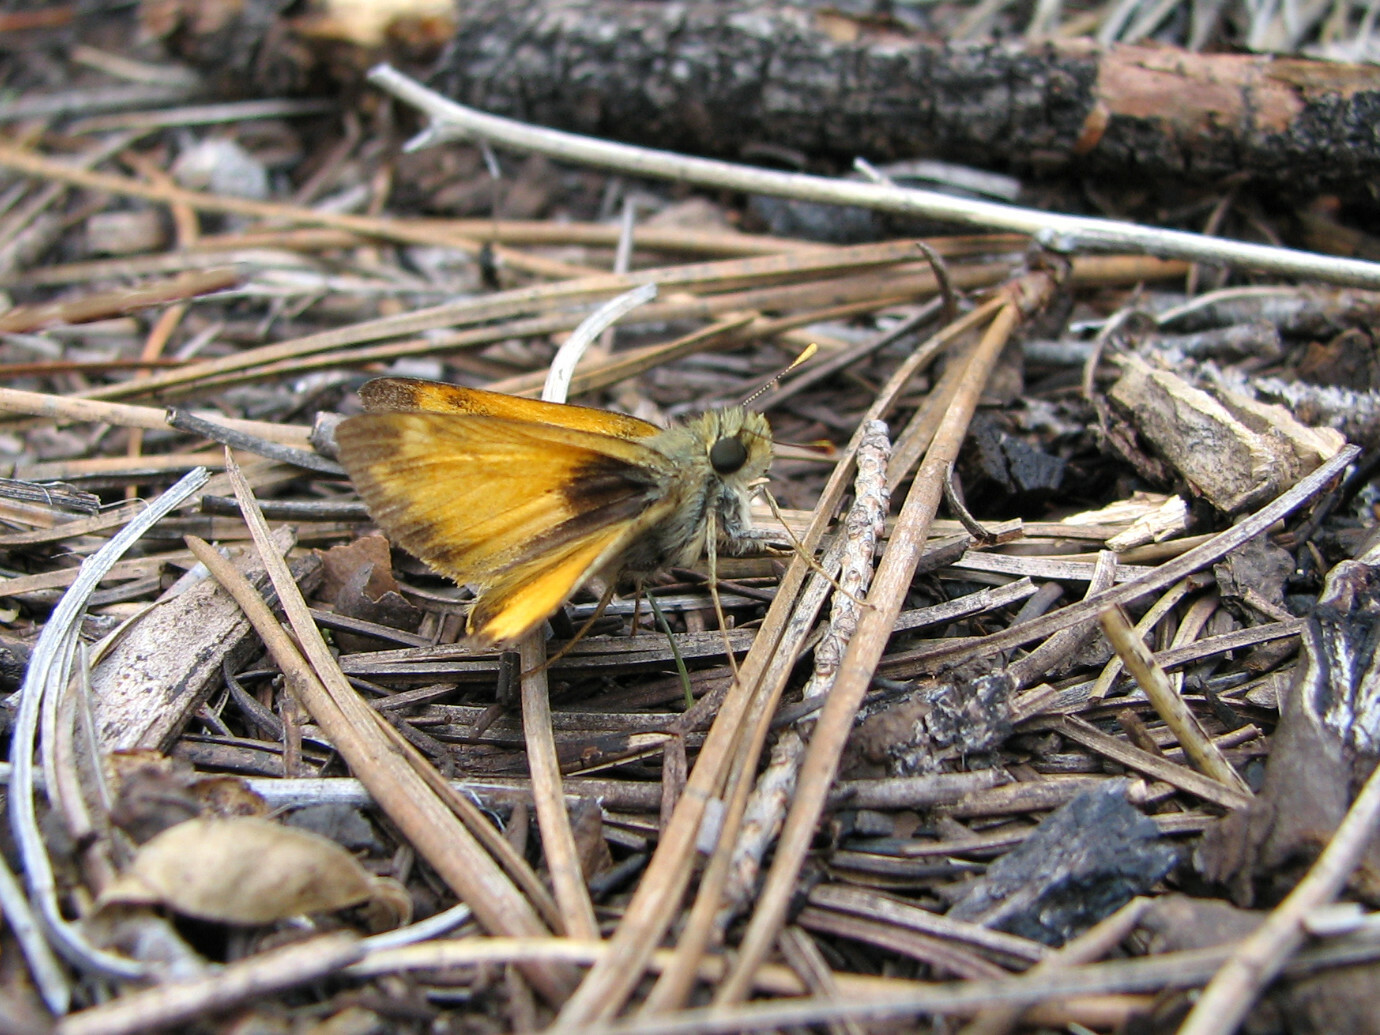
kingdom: Animalia
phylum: Arthropoda
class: Insecta
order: Lepidoptera
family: Hesperiidae
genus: Lon
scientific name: Lon taxiles
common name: Taxiles skipper
